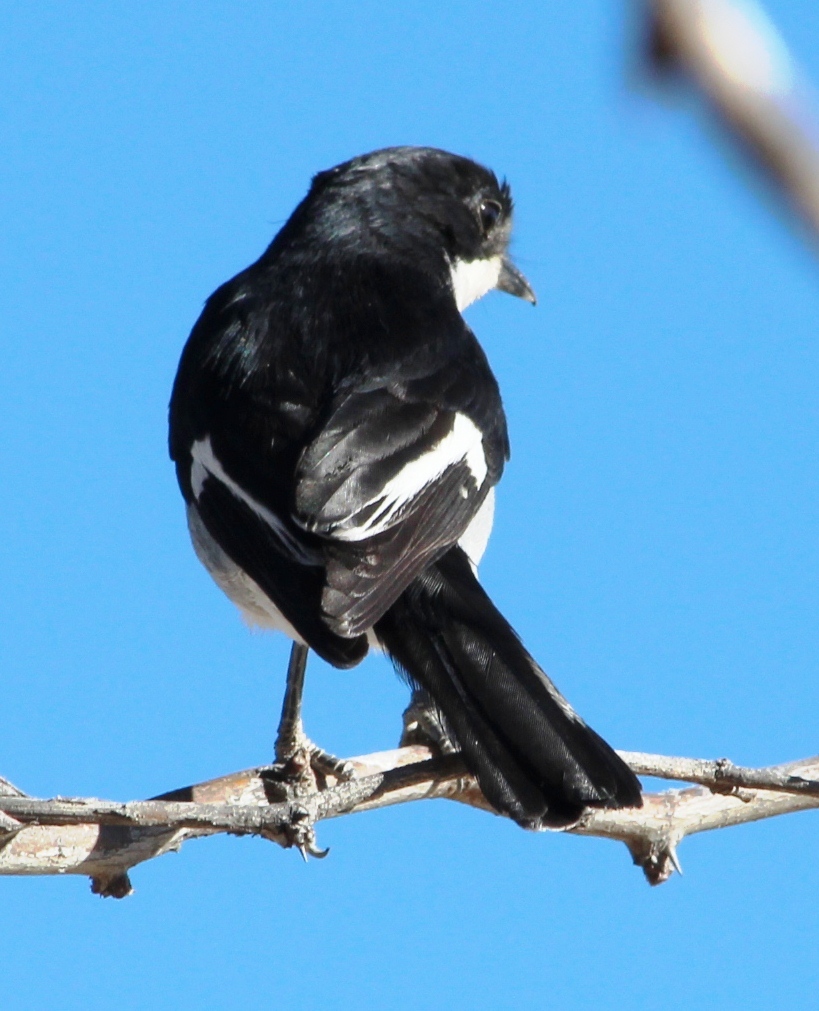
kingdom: Animalia
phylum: Chordata
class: Aves
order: Passeriformes
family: Muscicapidae
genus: Sigelus
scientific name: Sigelus silens
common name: Fiscal flycatcher
